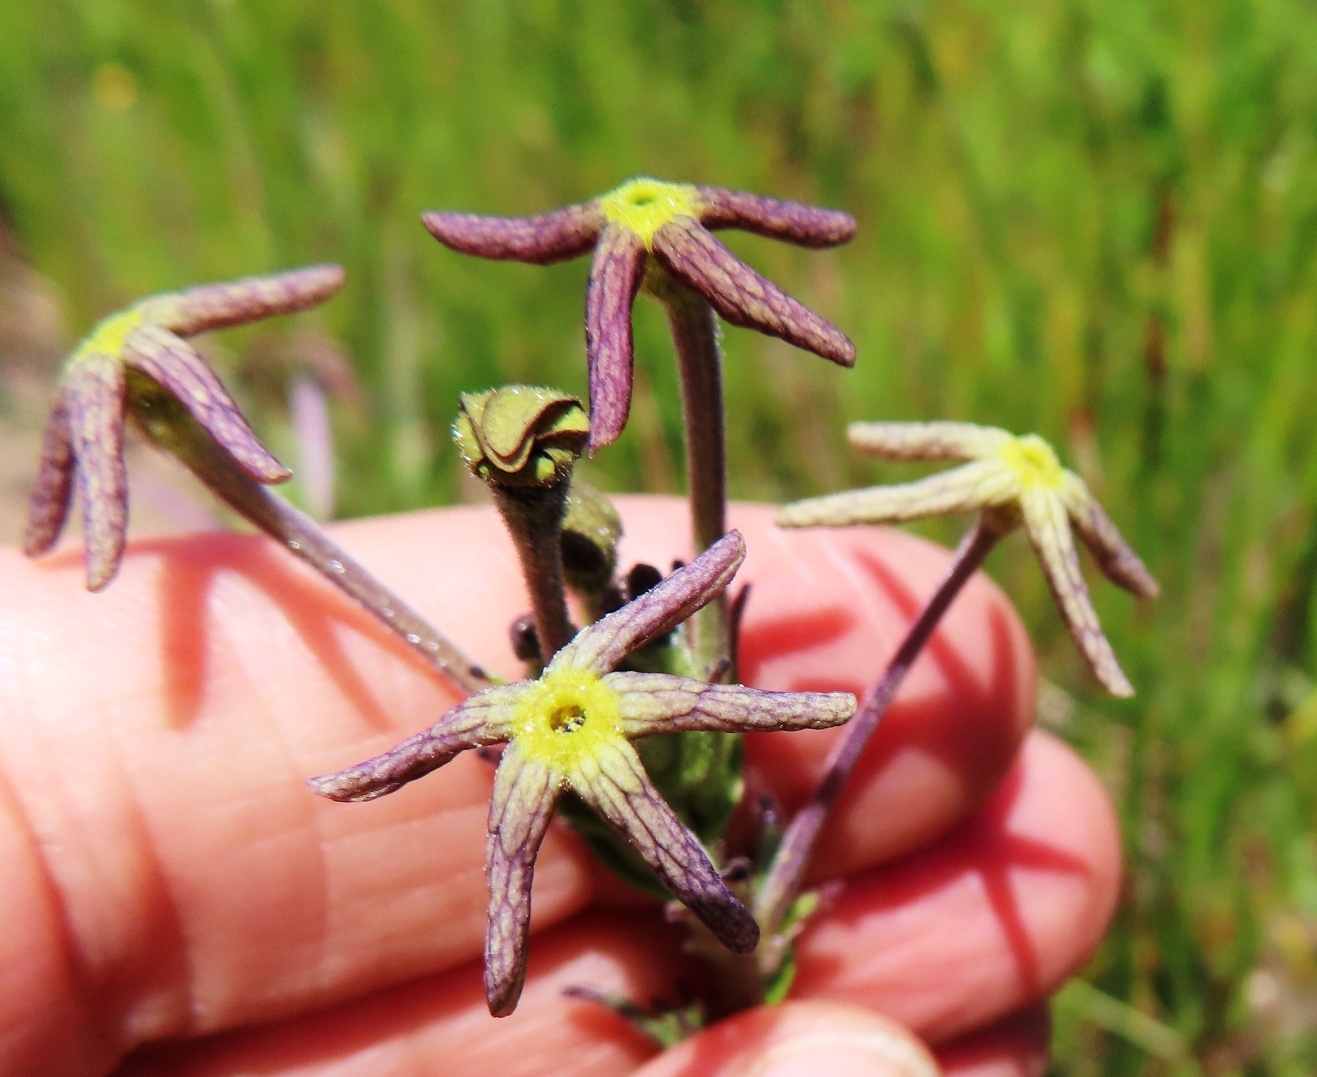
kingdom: Plantae
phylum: Tracheophyta
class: Magnoliopsida
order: Lamiales
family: Scrophulariaceae
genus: Lyperia
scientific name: Lyperia tristis
